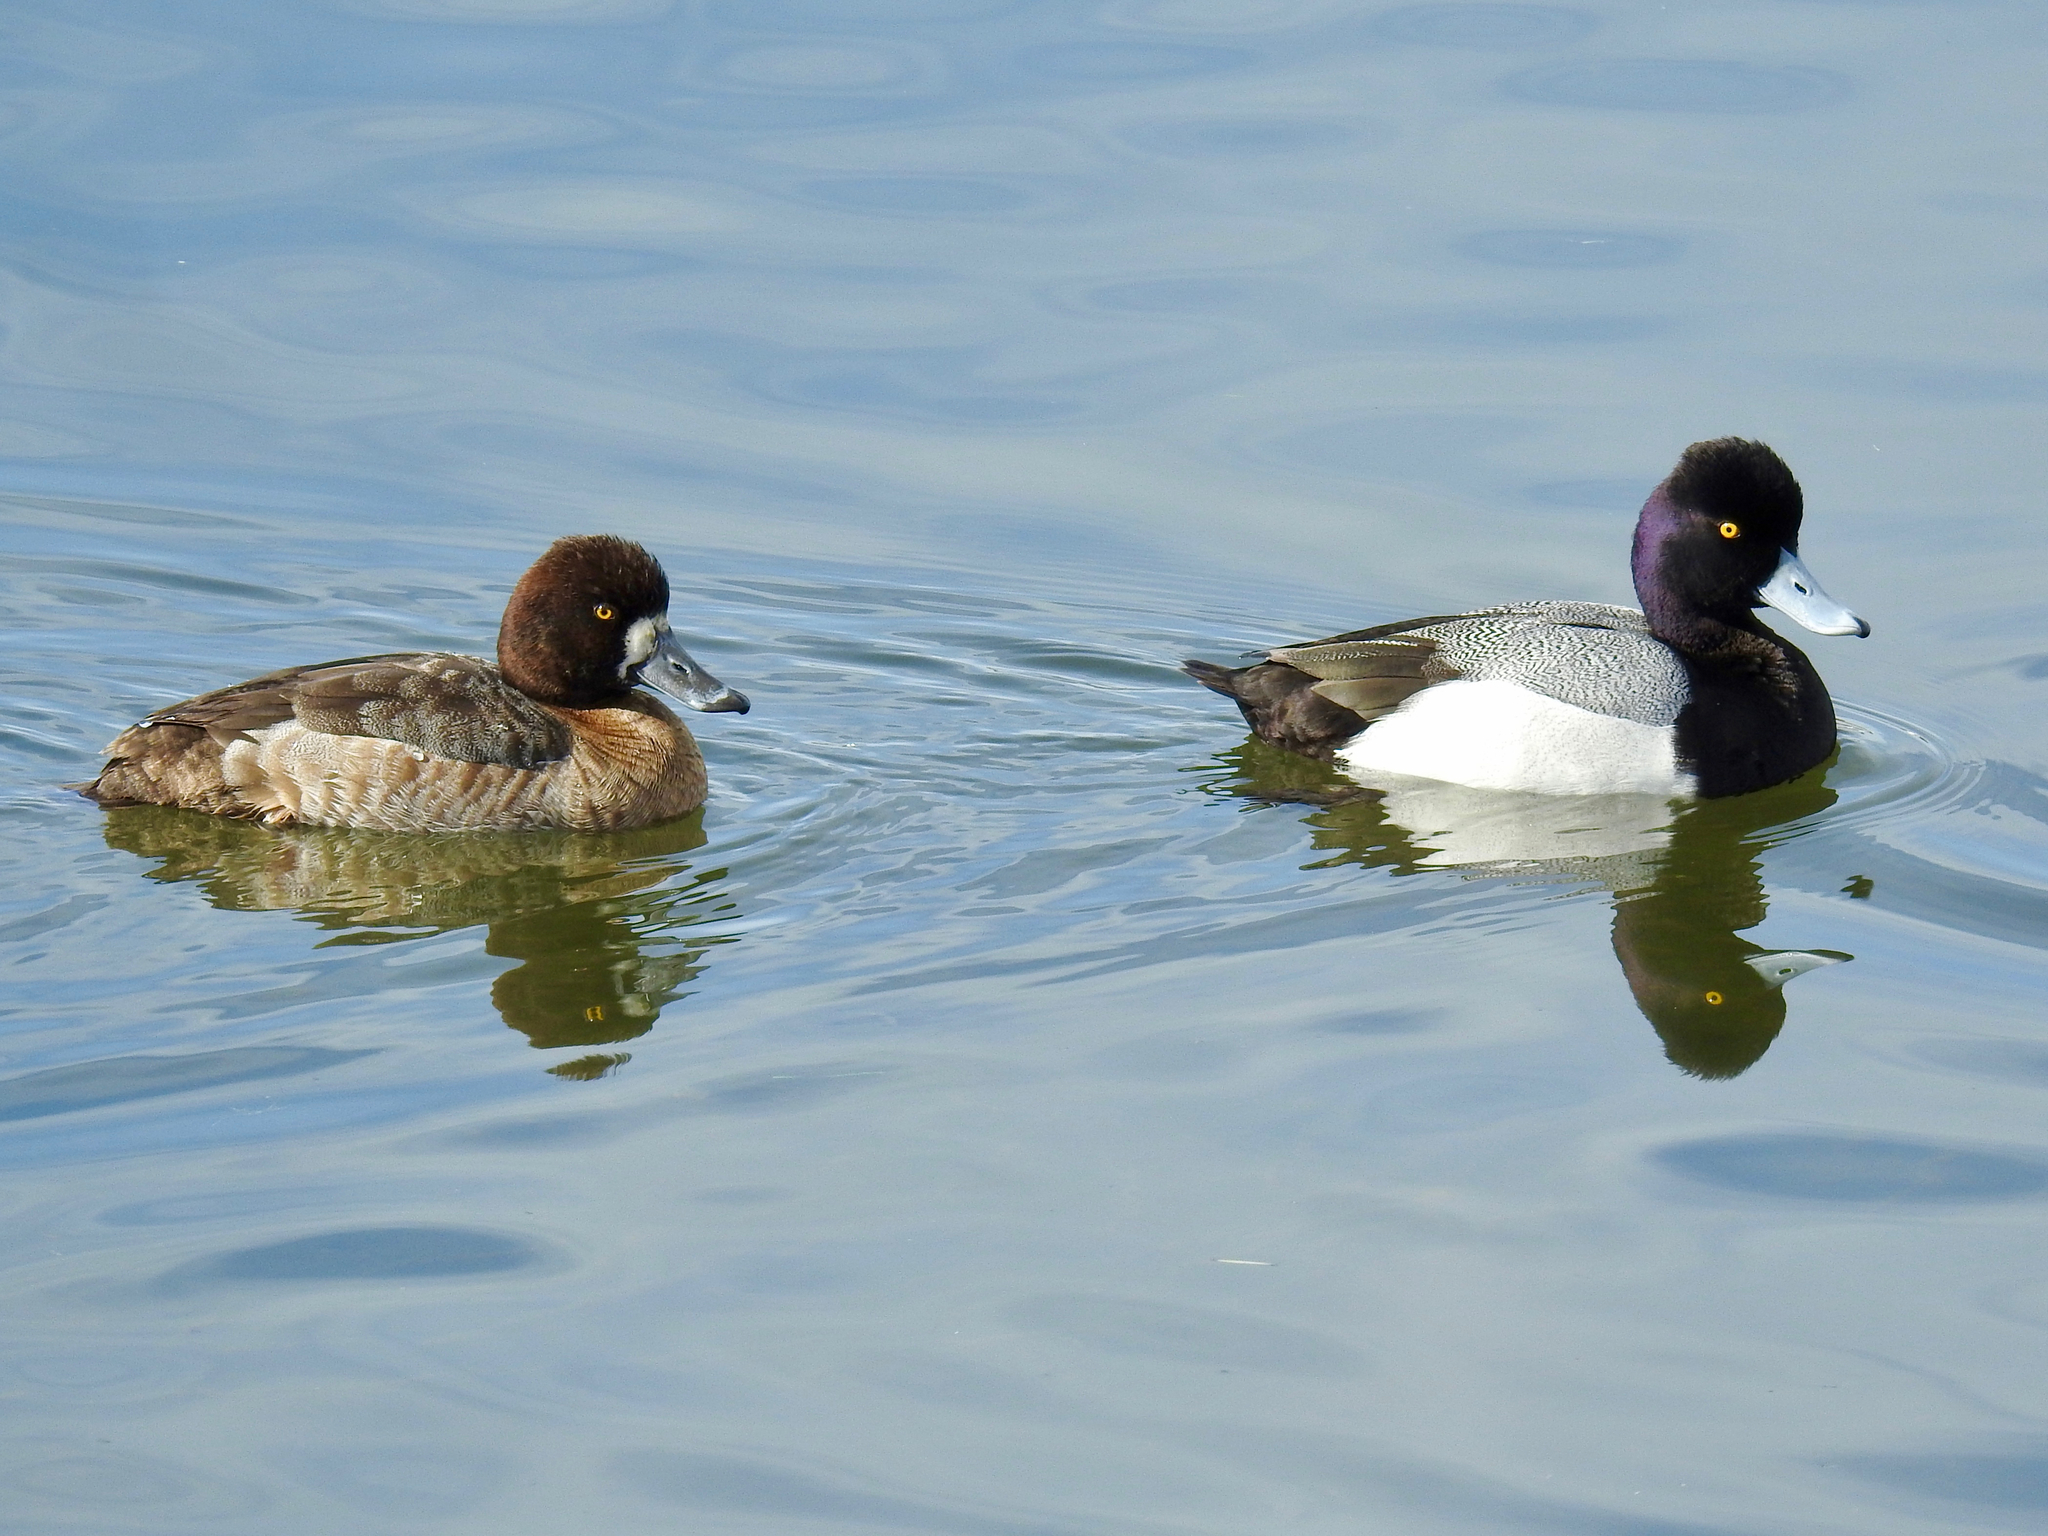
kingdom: Animalia
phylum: Chordata
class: Aves
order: Anseriformes
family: Anatidae
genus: Aythya
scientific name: Aythya affinis
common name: Lesser scaup
